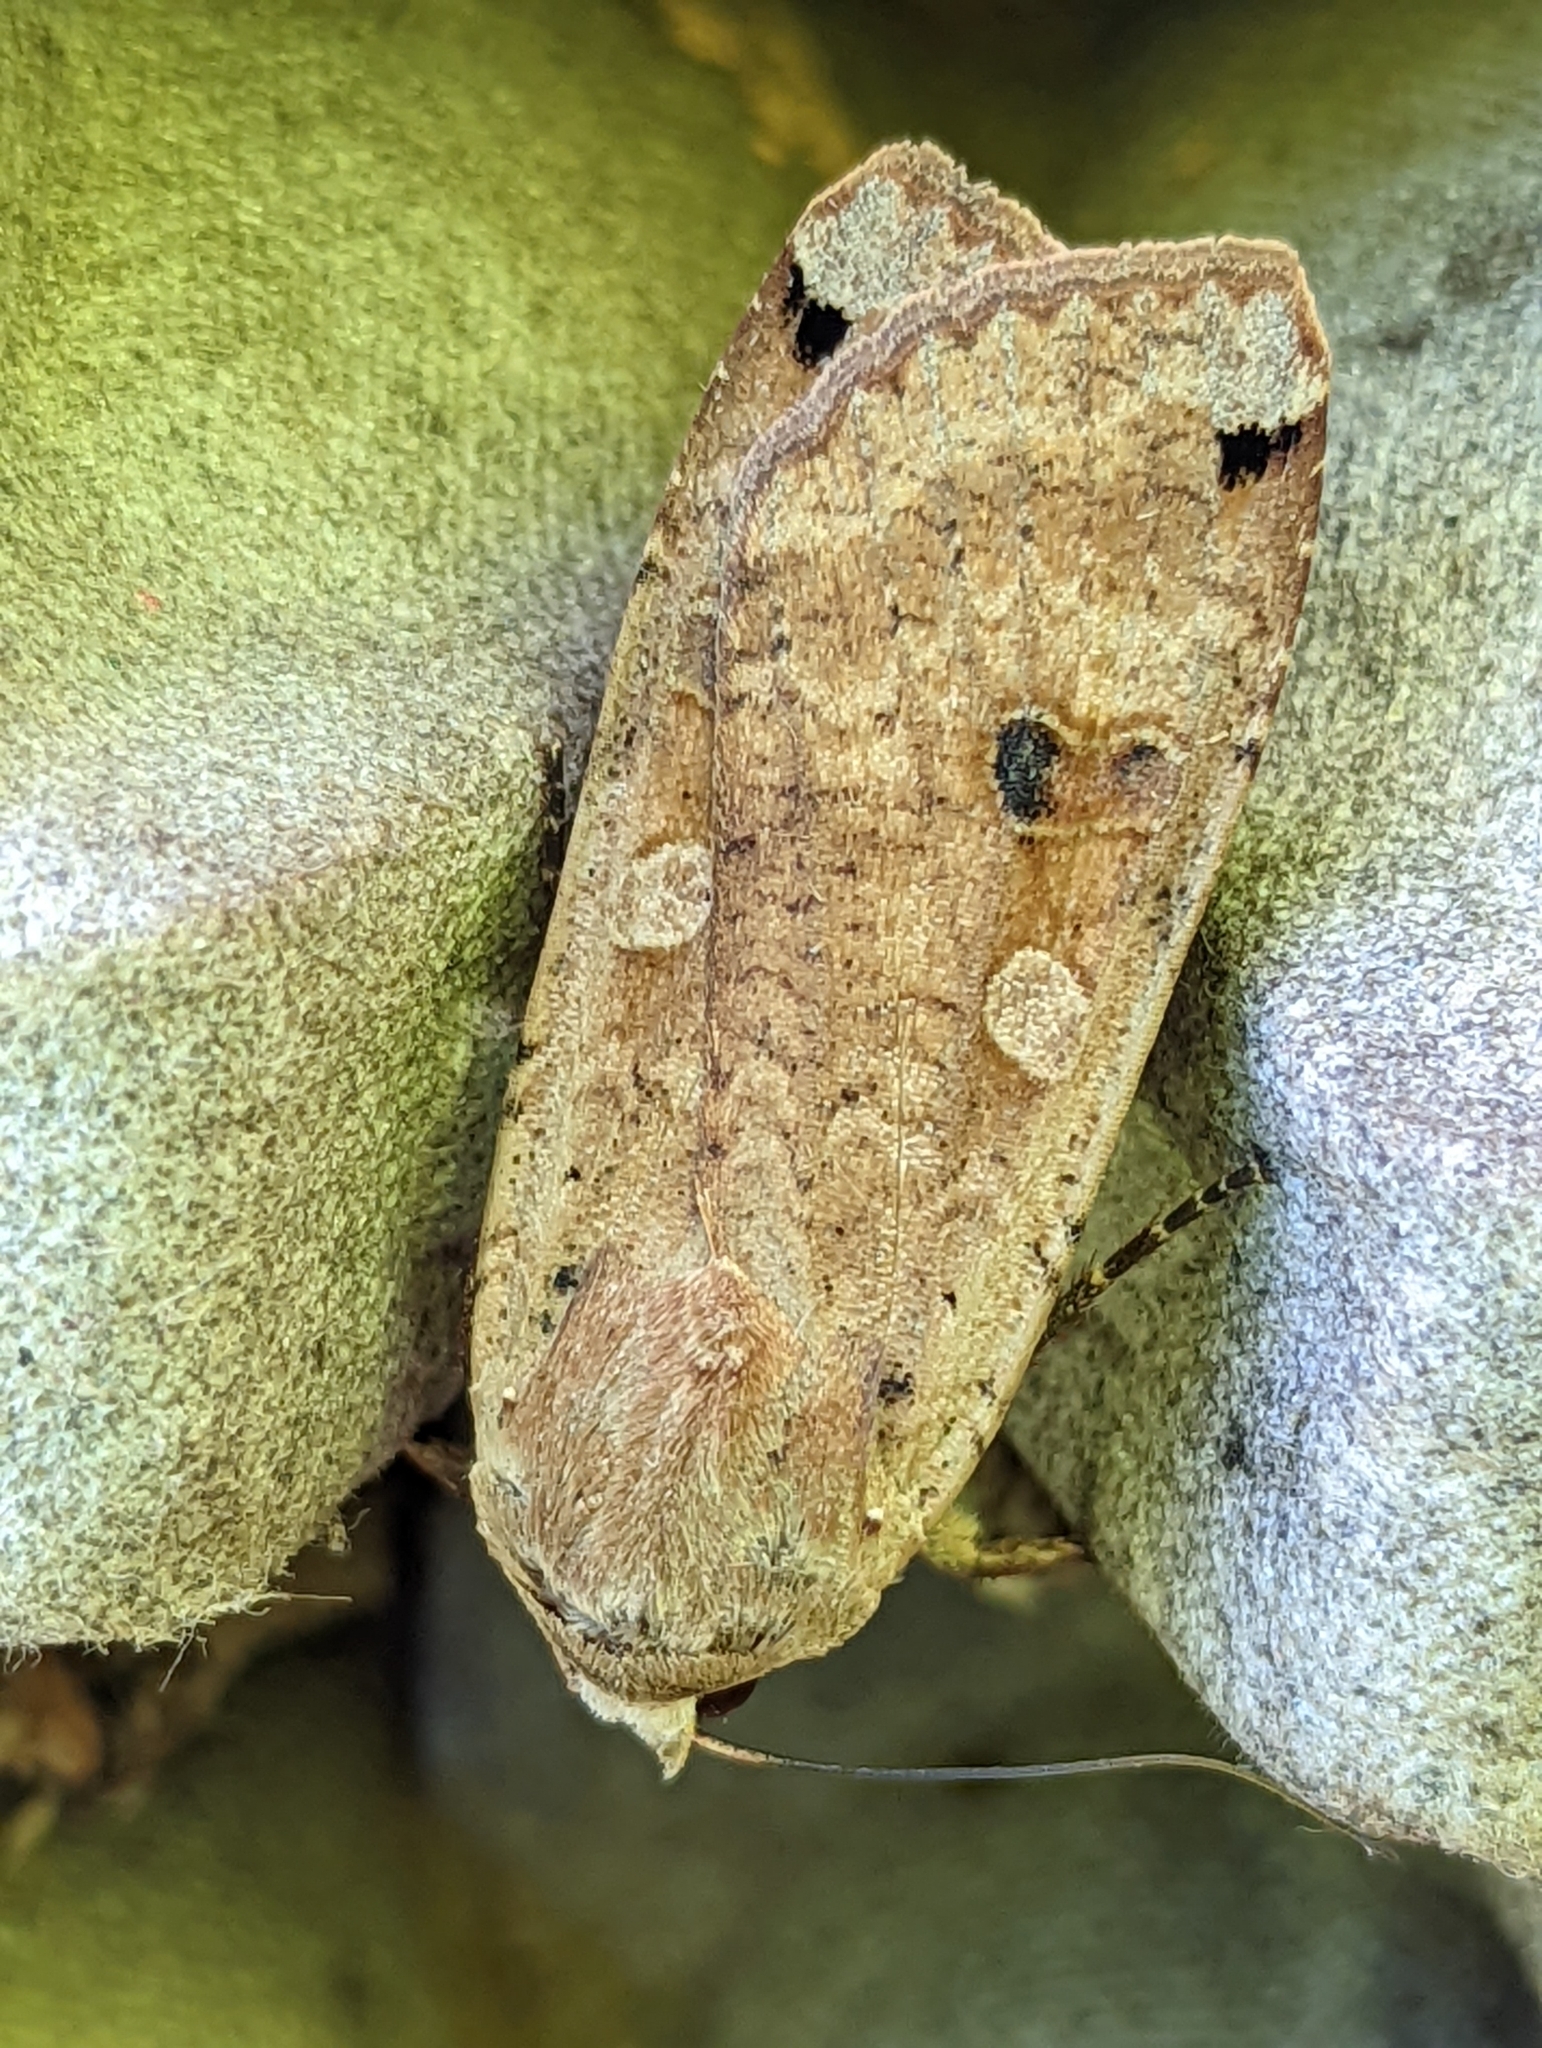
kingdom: Animalia
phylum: Arthropoda
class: Insecta
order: Lepidoptera
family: Noctuidae
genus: Noctua
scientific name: Noctua pronuba
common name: Large yellow underwing
